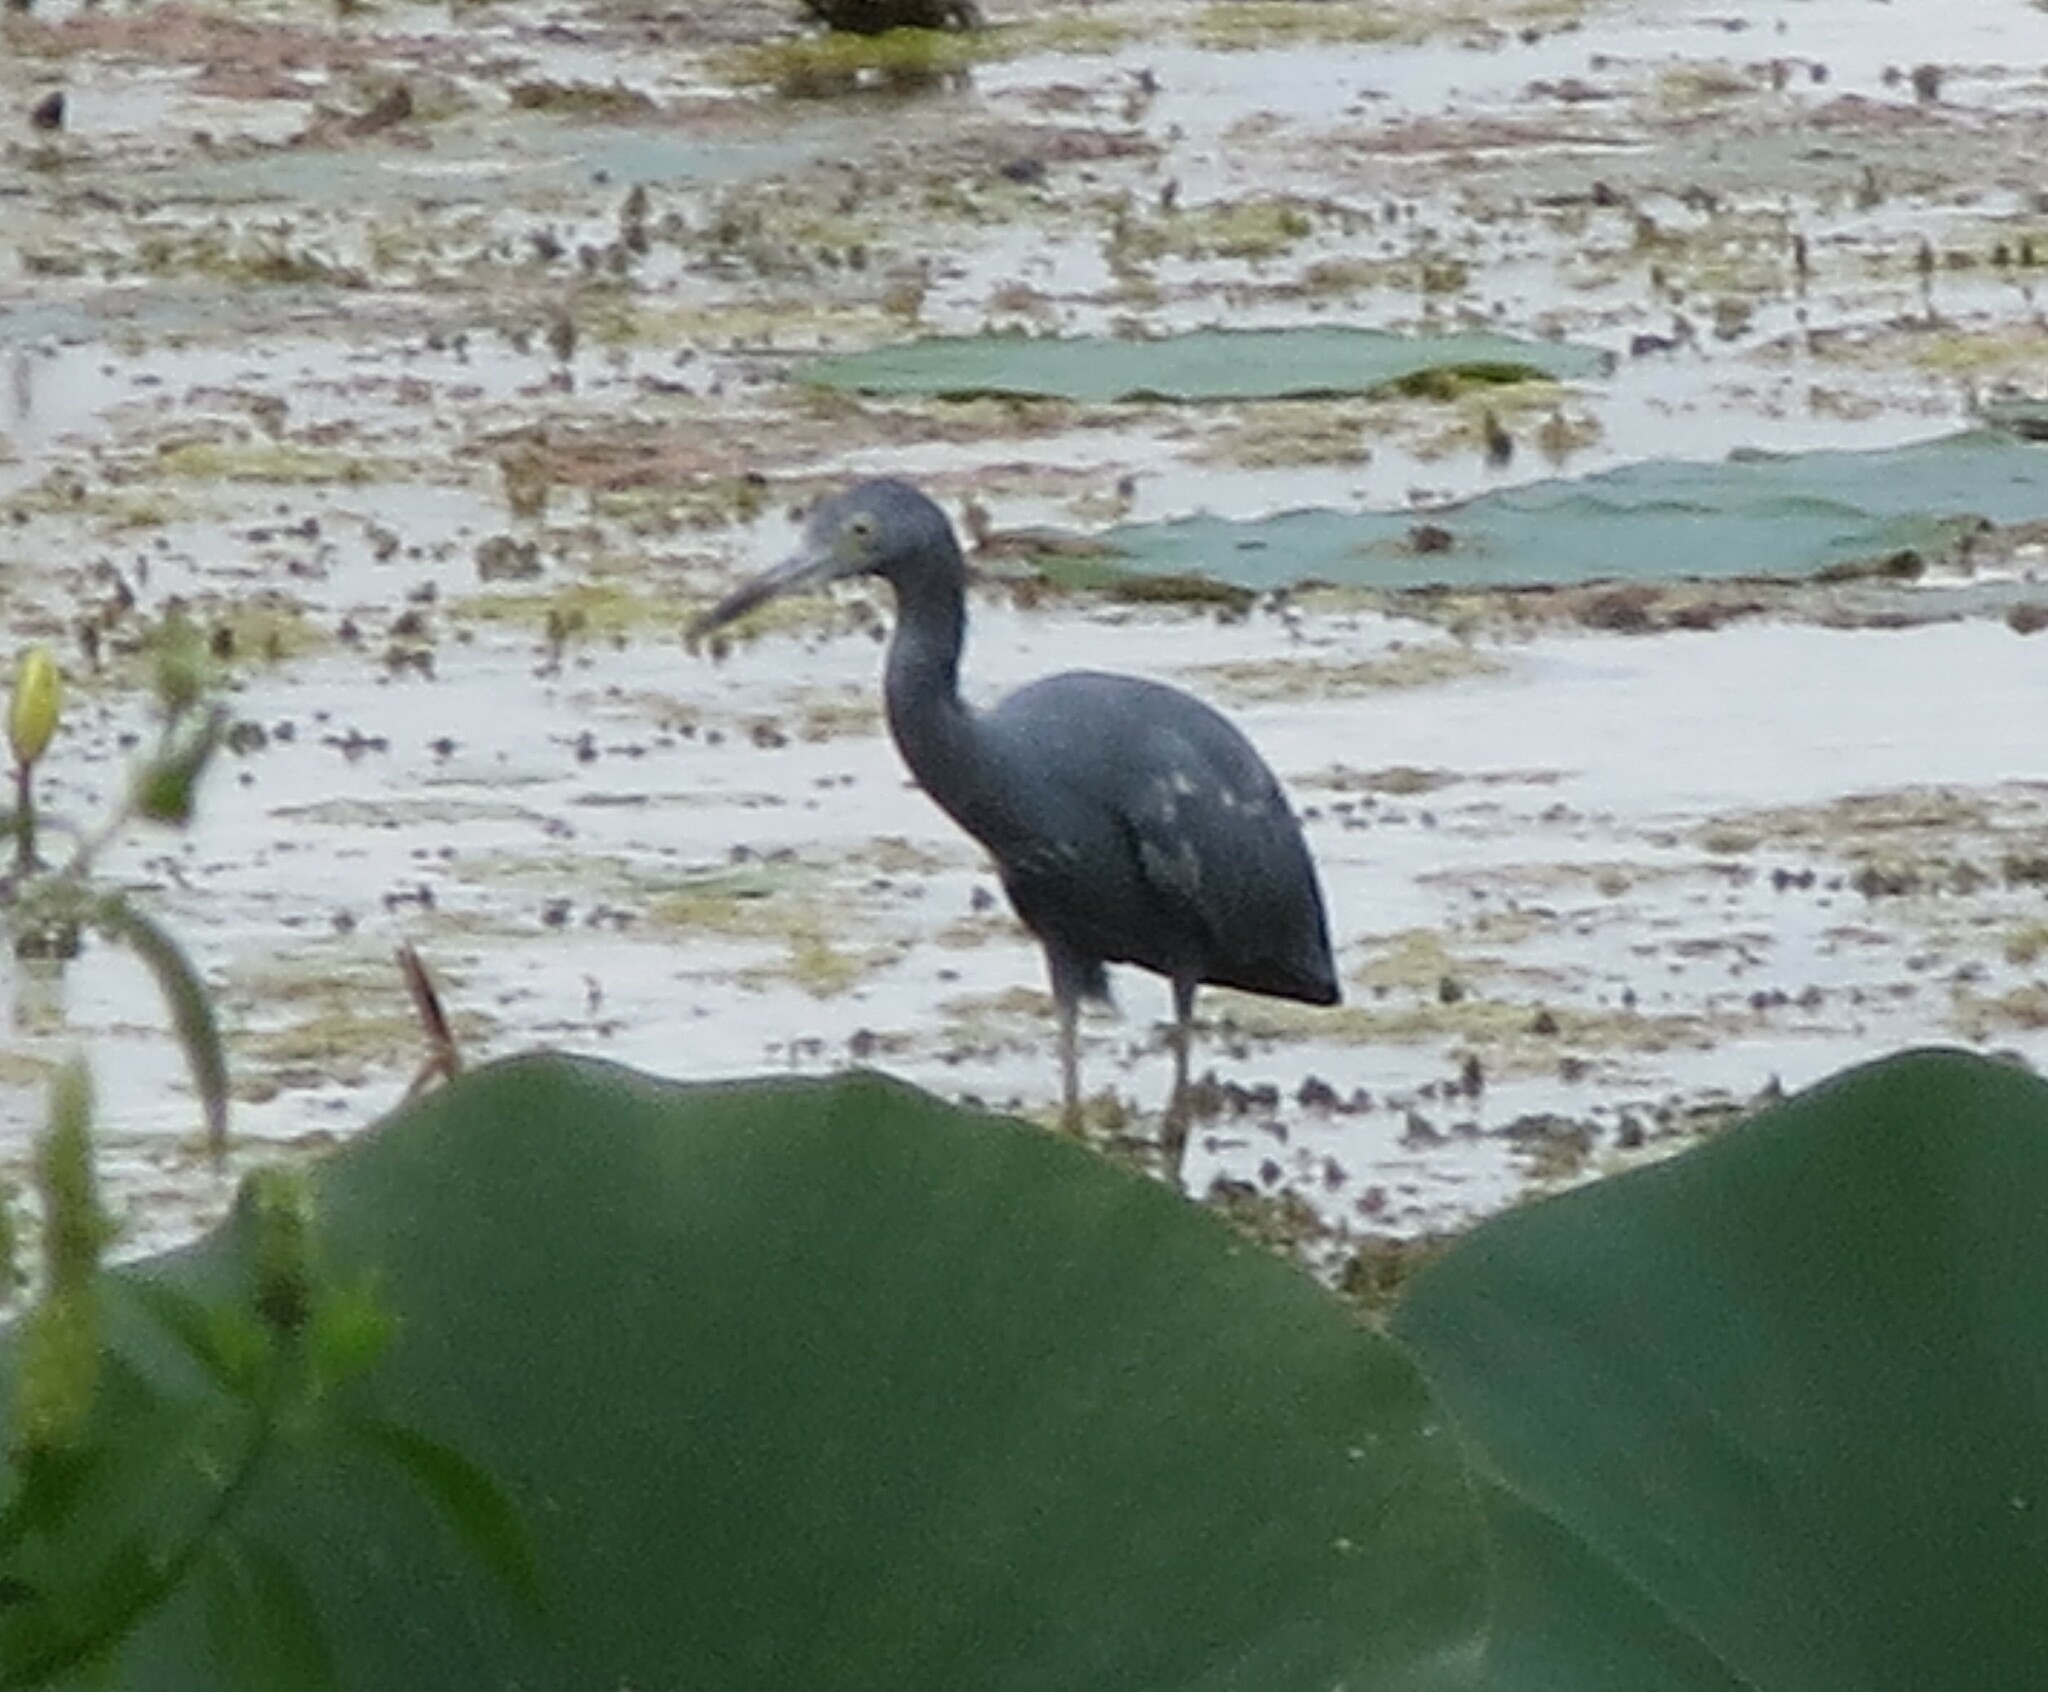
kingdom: Animalia
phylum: Chordata
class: Aves
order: Pelecaniformes
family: Ardeidae
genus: Egretta
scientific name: Egretta caerulea
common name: Little blue heron
